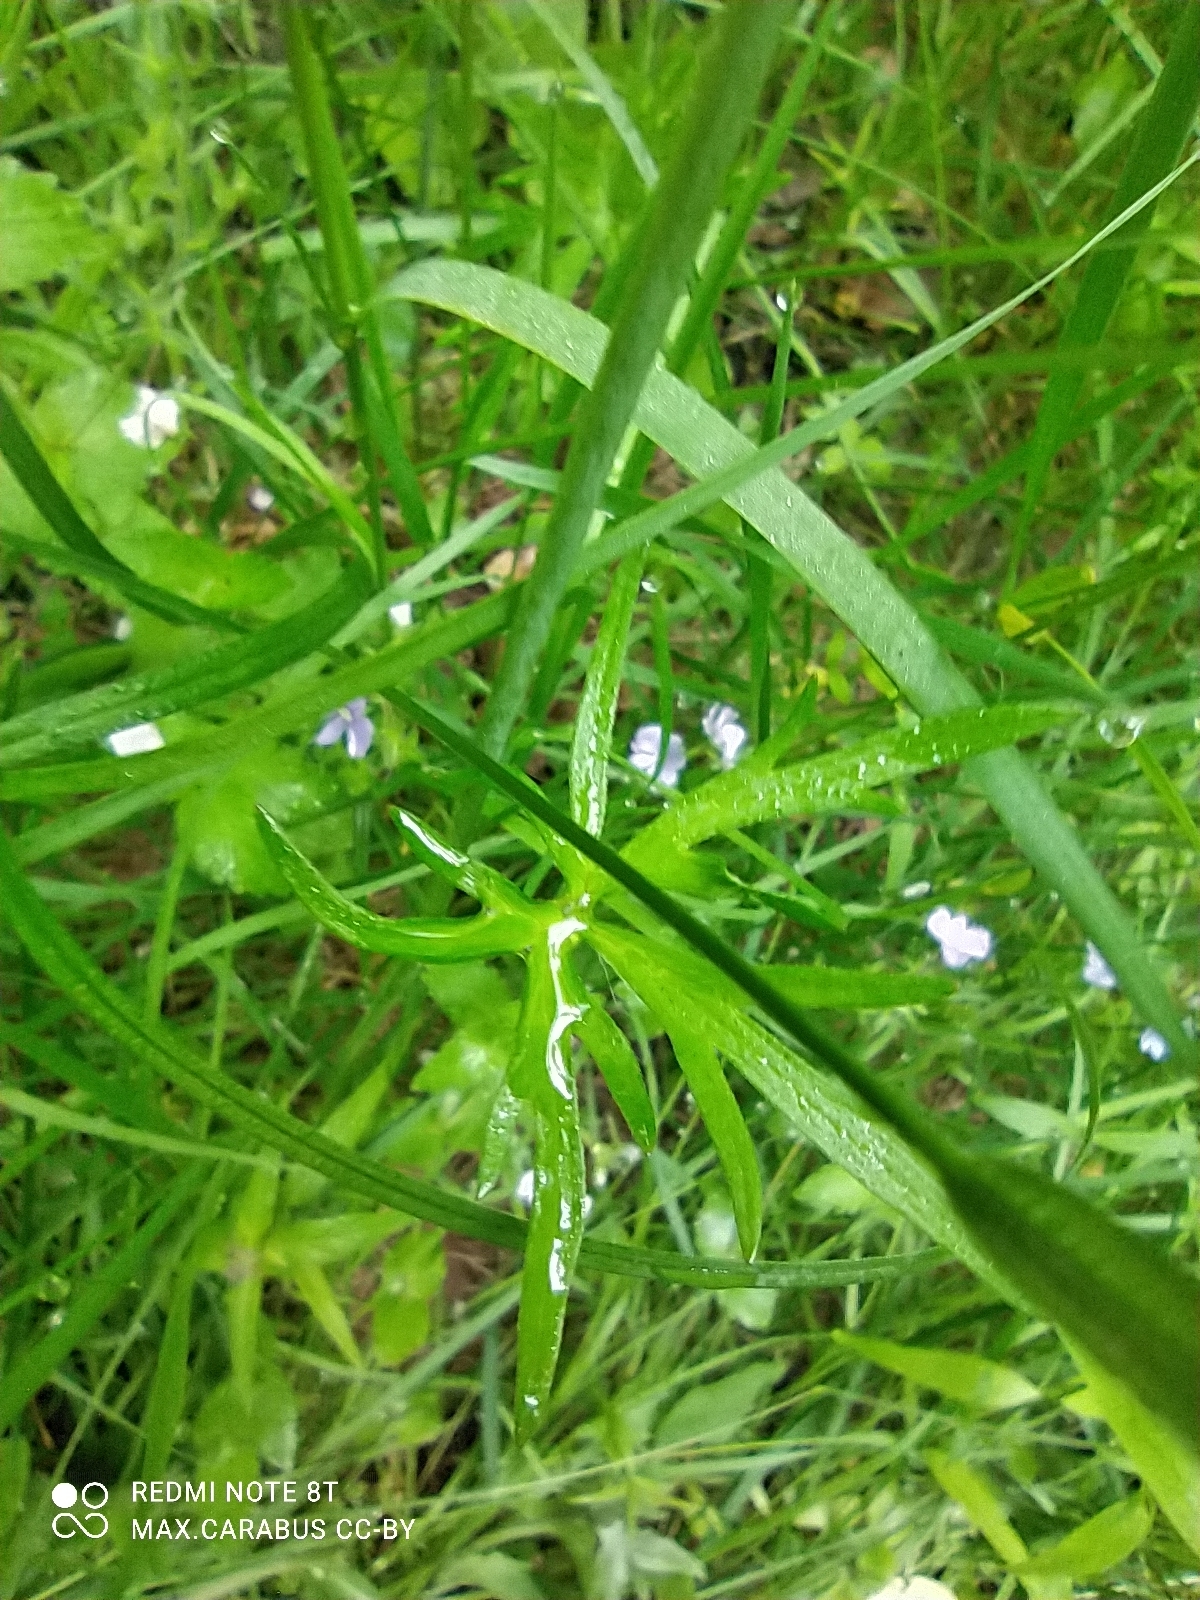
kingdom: Plantae
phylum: Tracheophyta
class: Magnoliopsida
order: Ranunculales
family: Ranunculaceae
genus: Ranunculus
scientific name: Ranunculus acris
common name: Meadow buttercup
